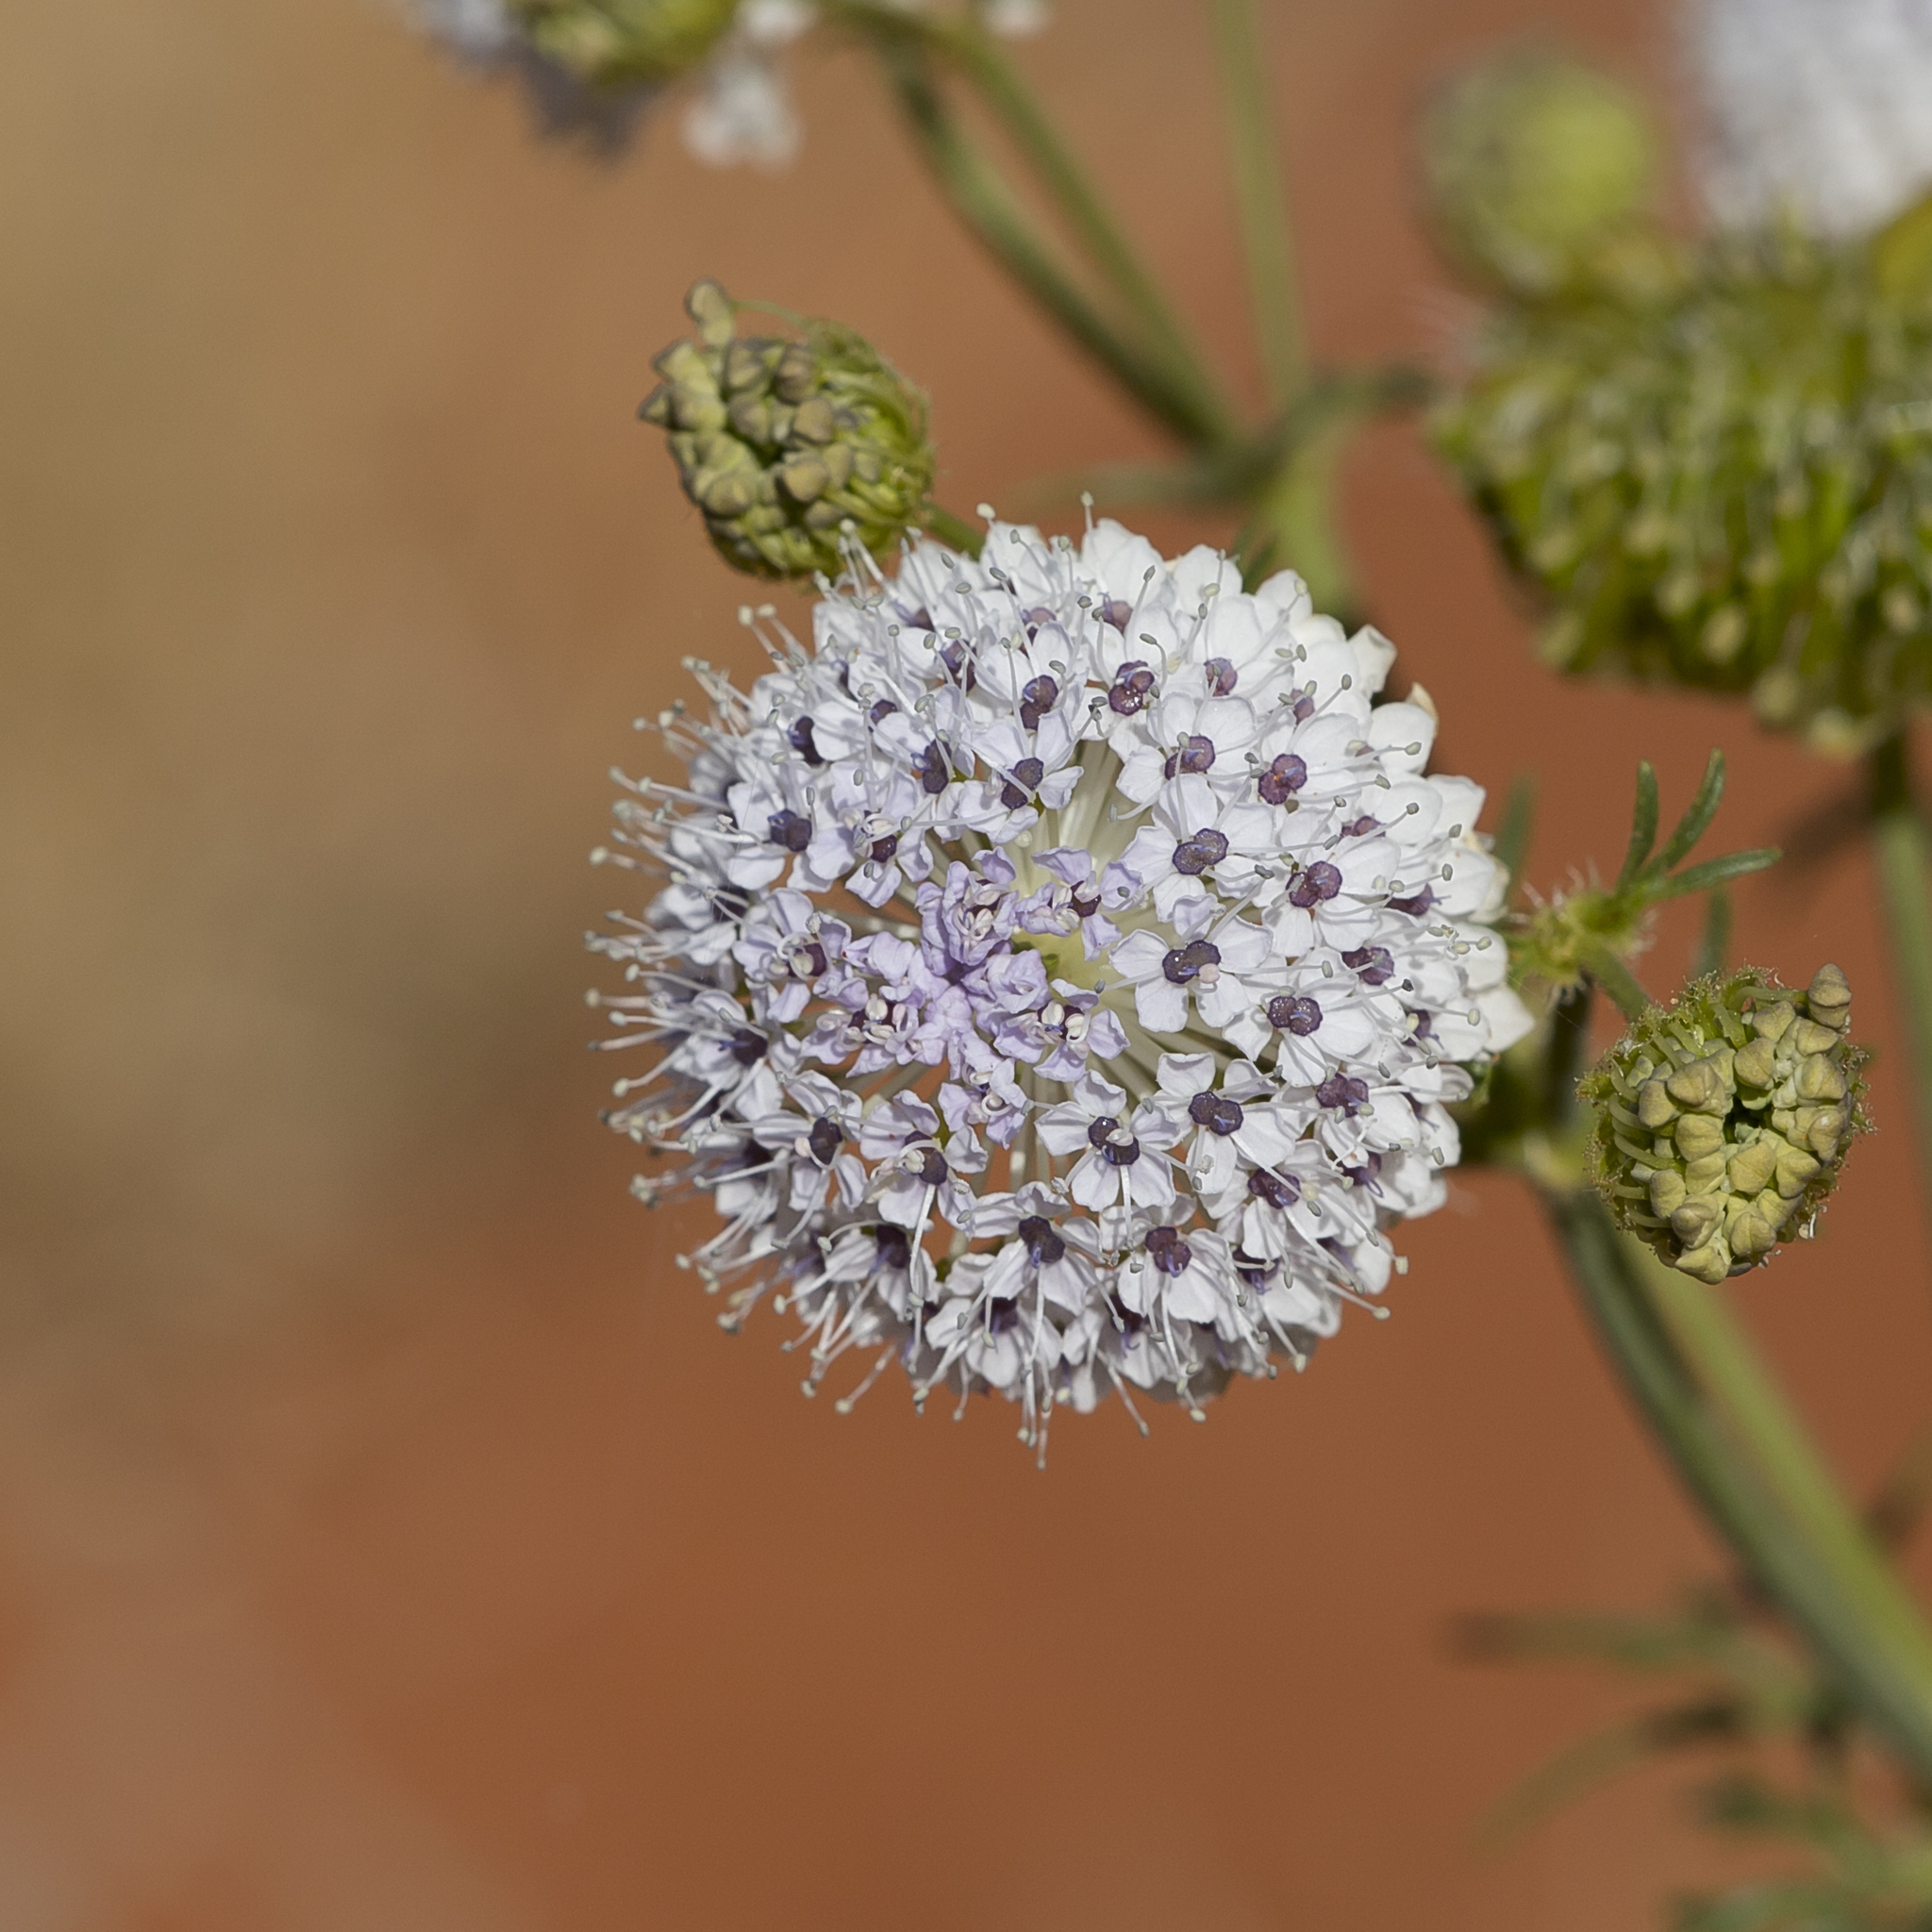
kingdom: Plantae
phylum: Tracheophyta
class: Magnoliopsida
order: Apiales
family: Araliaceae
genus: Trachymene
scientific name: Trachymene glaucifolia
